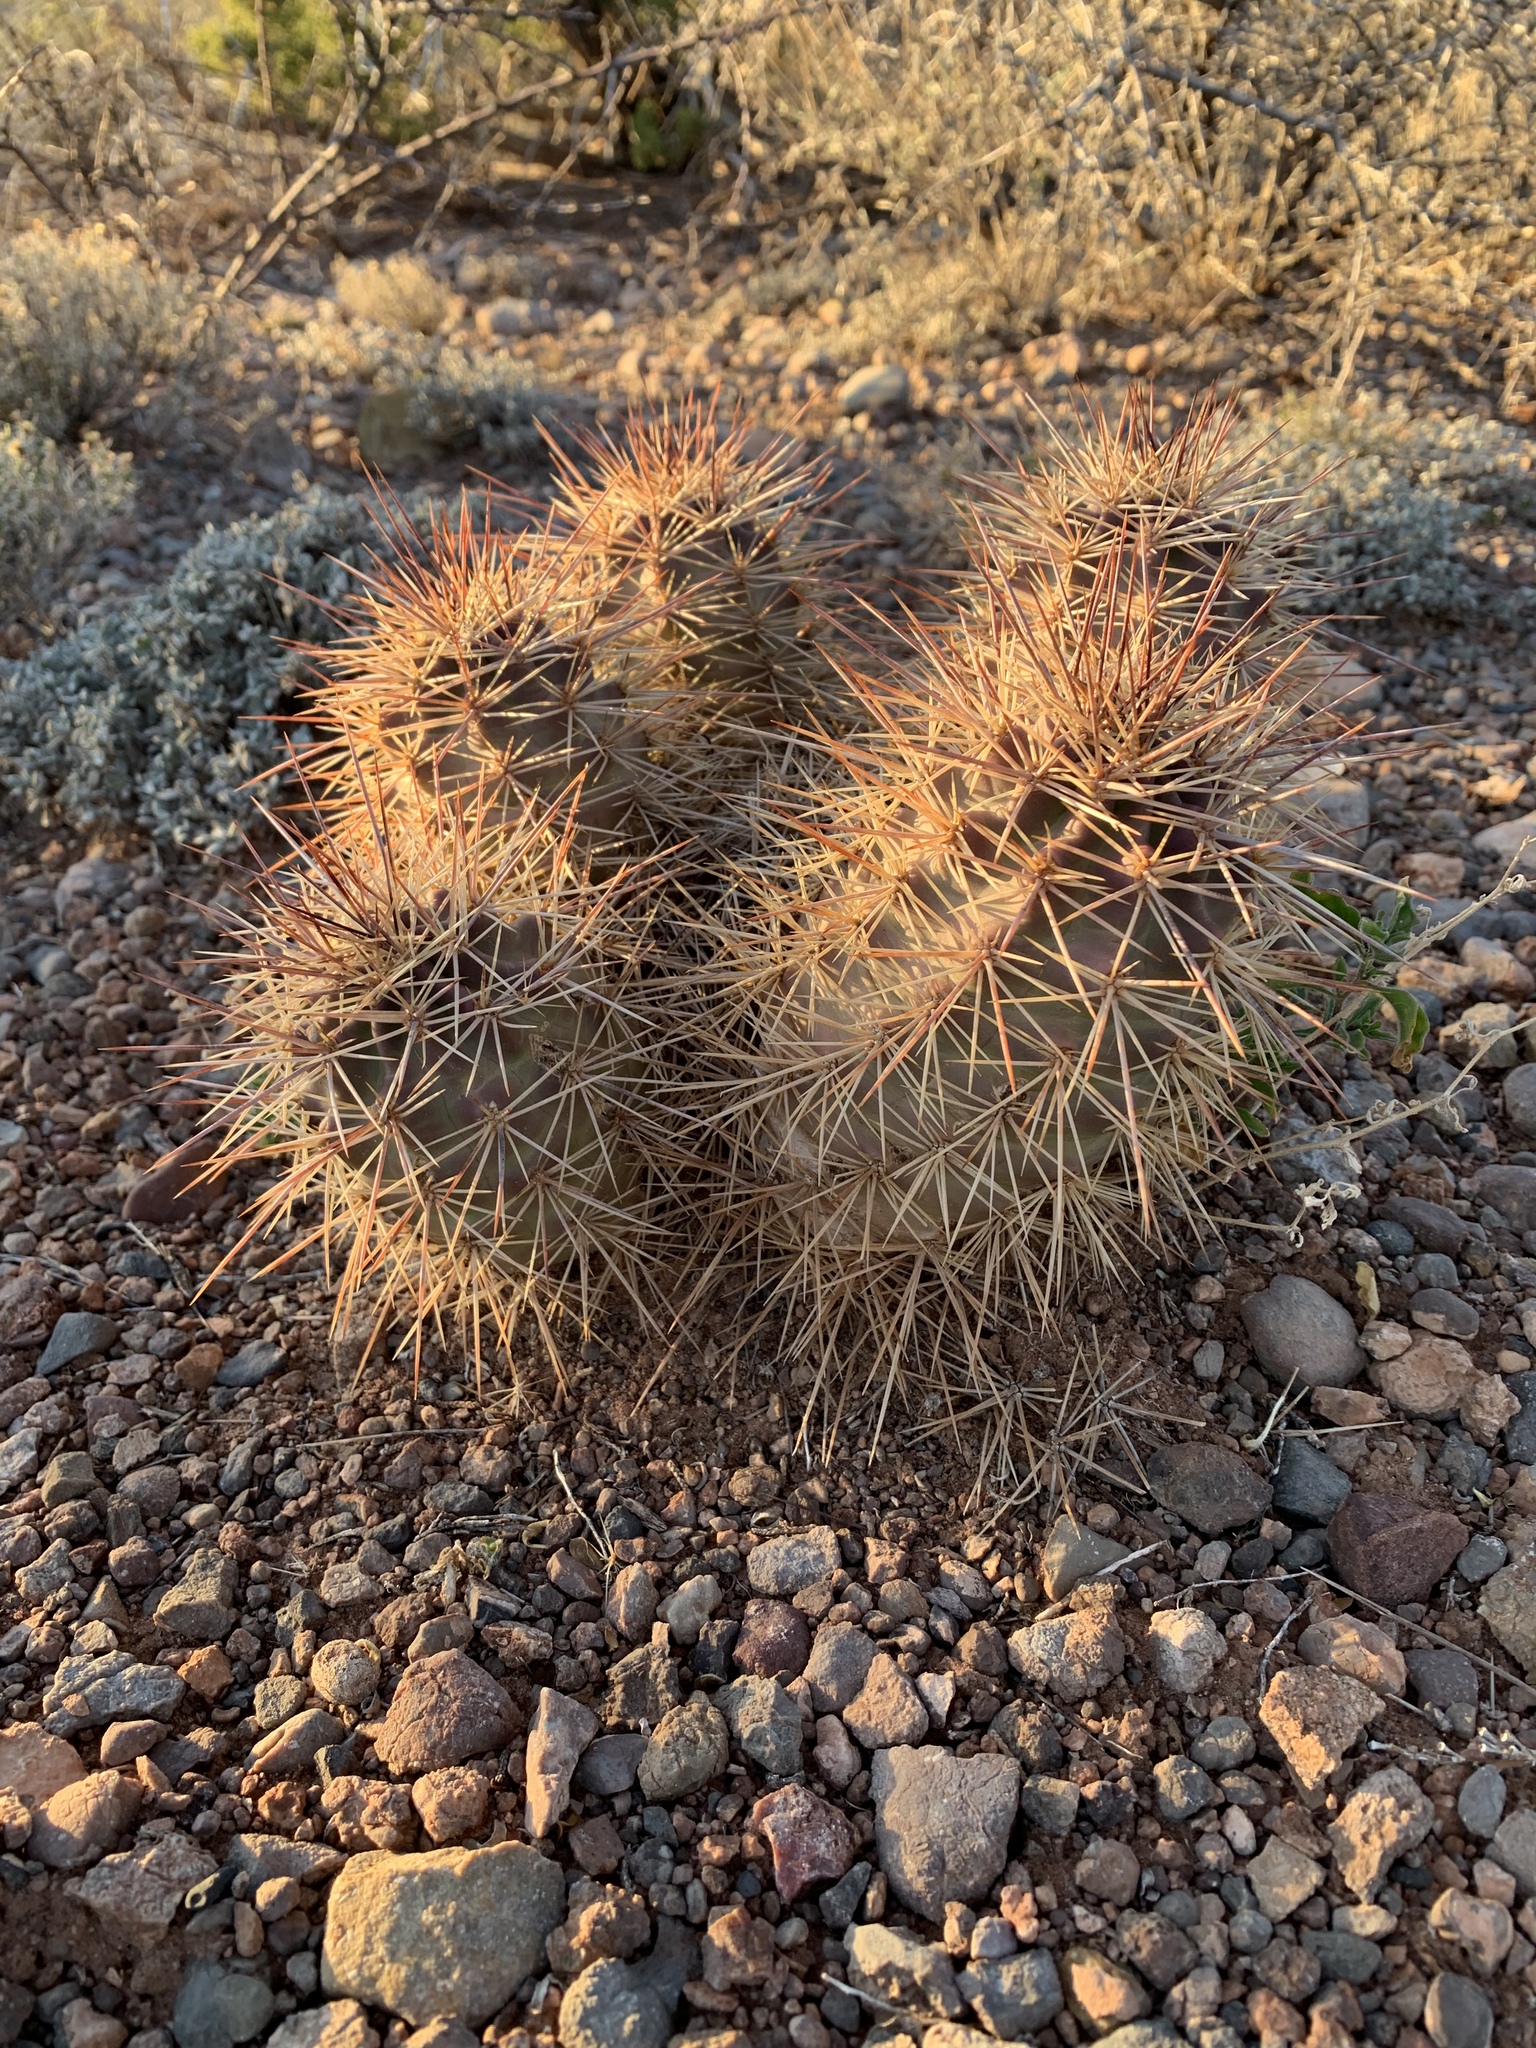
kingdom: Plantae
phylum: Tracheophyta
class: Magnoliopsida
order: Caryophyllales
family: Cactaceae
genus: Echinocereus
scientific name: Echinocereus coccineus
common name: Scarlet hedgehog cactus
